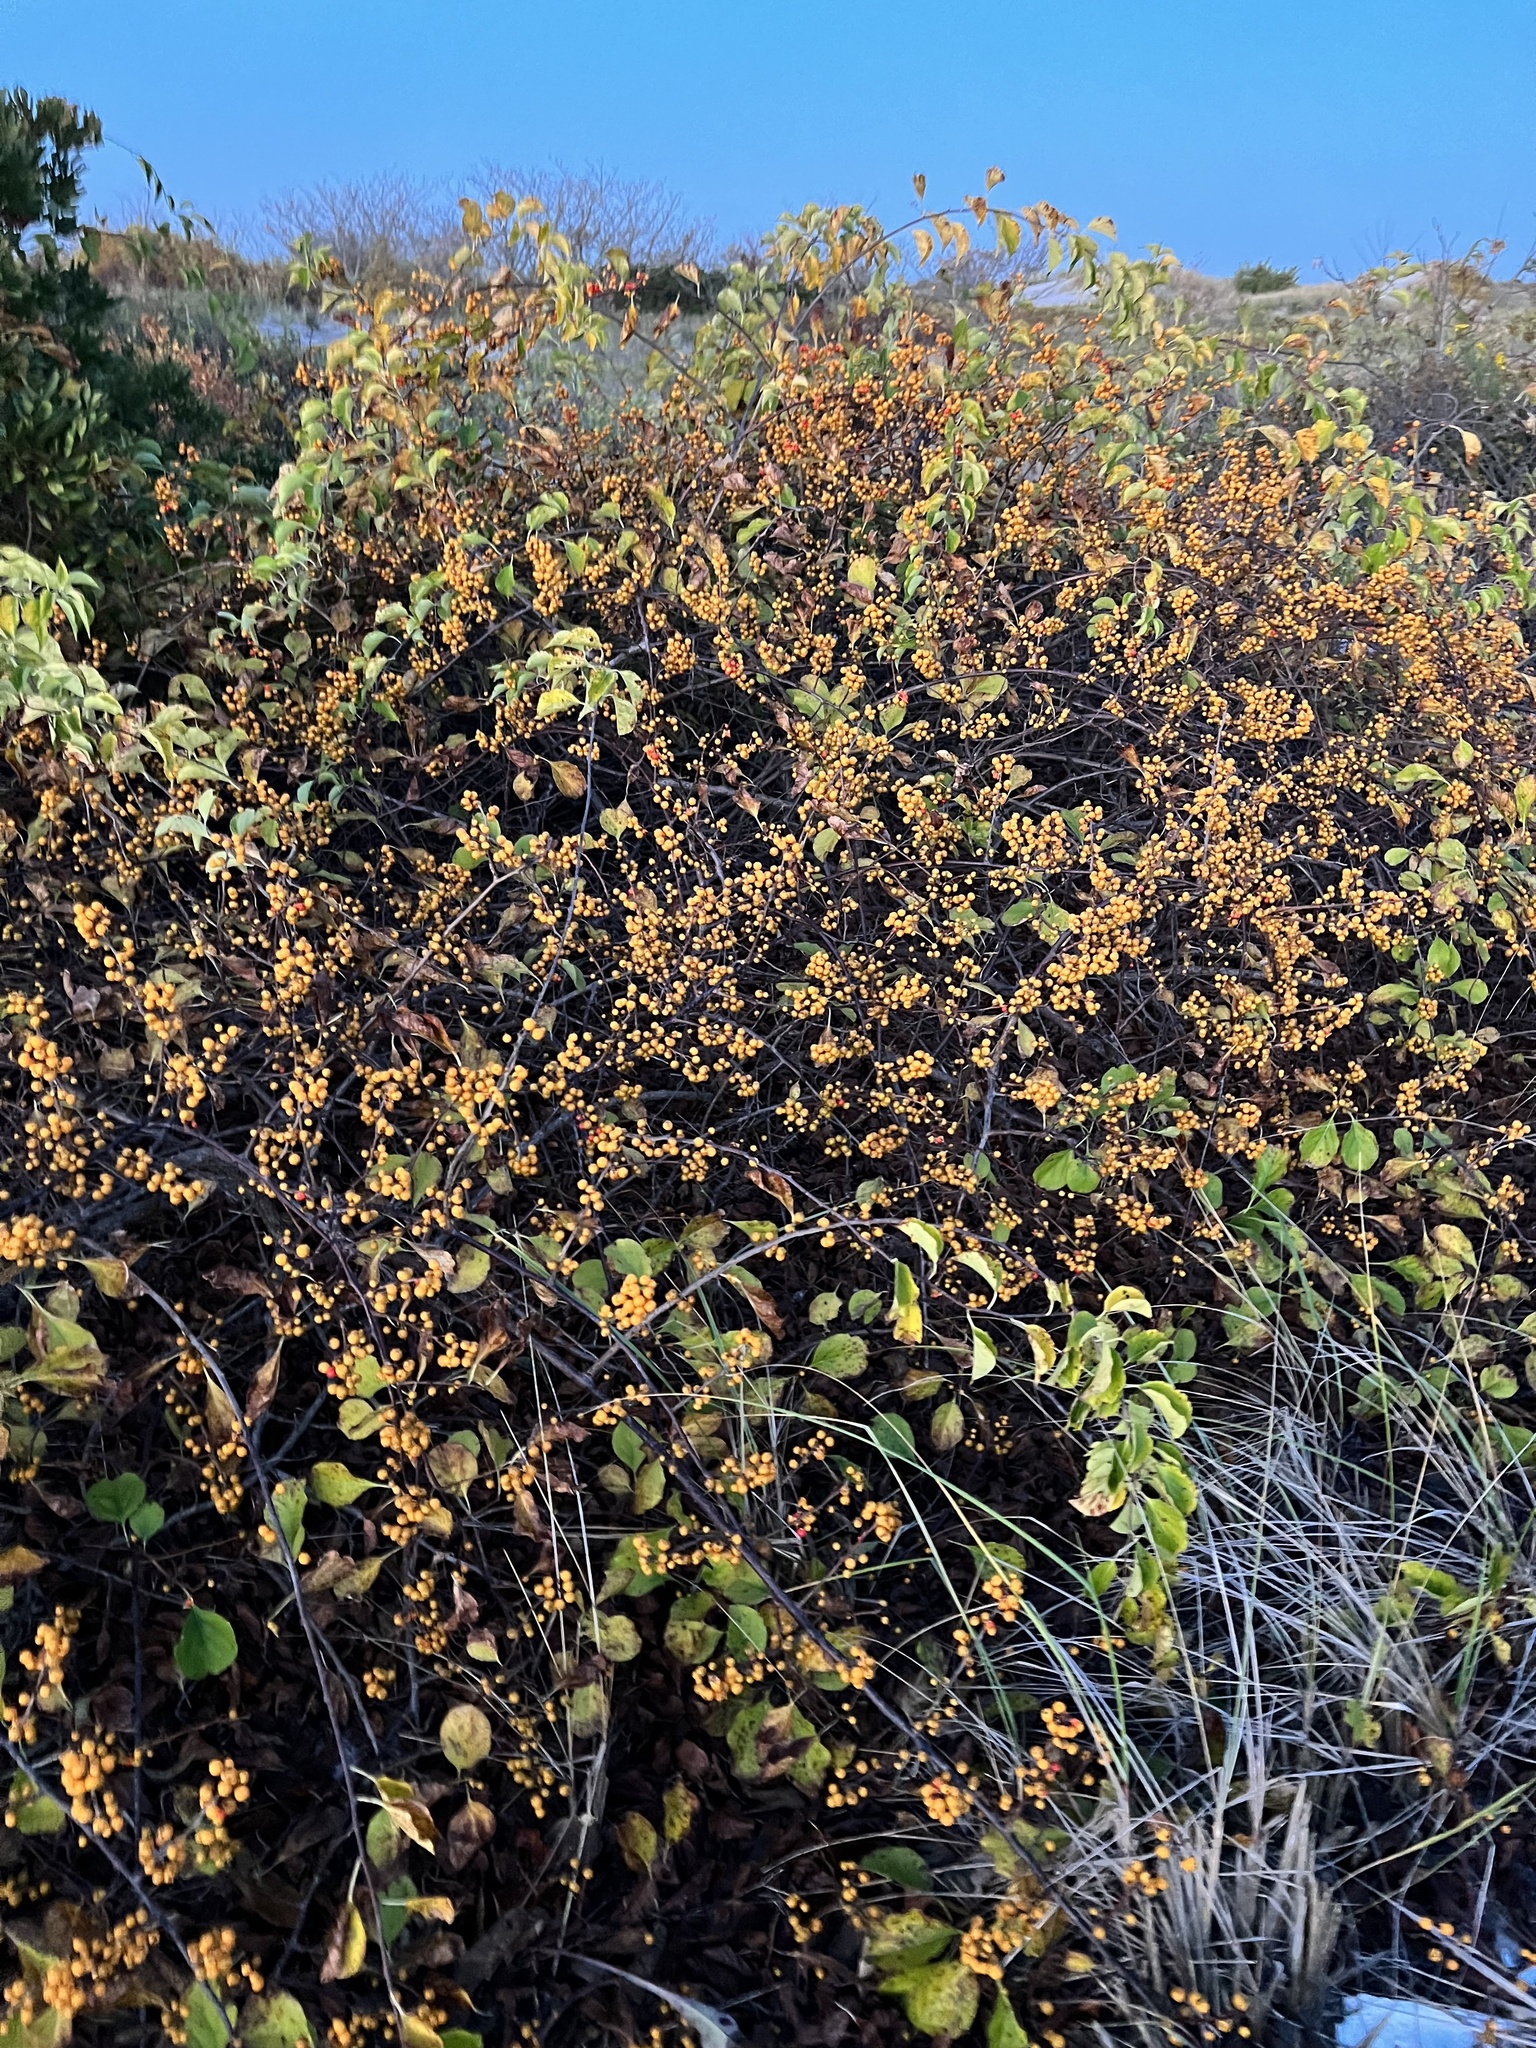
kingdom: Plantae
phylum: Tracheophyta
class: Magnoliopsida
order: Celastrales
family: Celastraceae
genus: Celastrus
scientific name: Celastrus orbiculatus
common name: Oriental bittersweet
